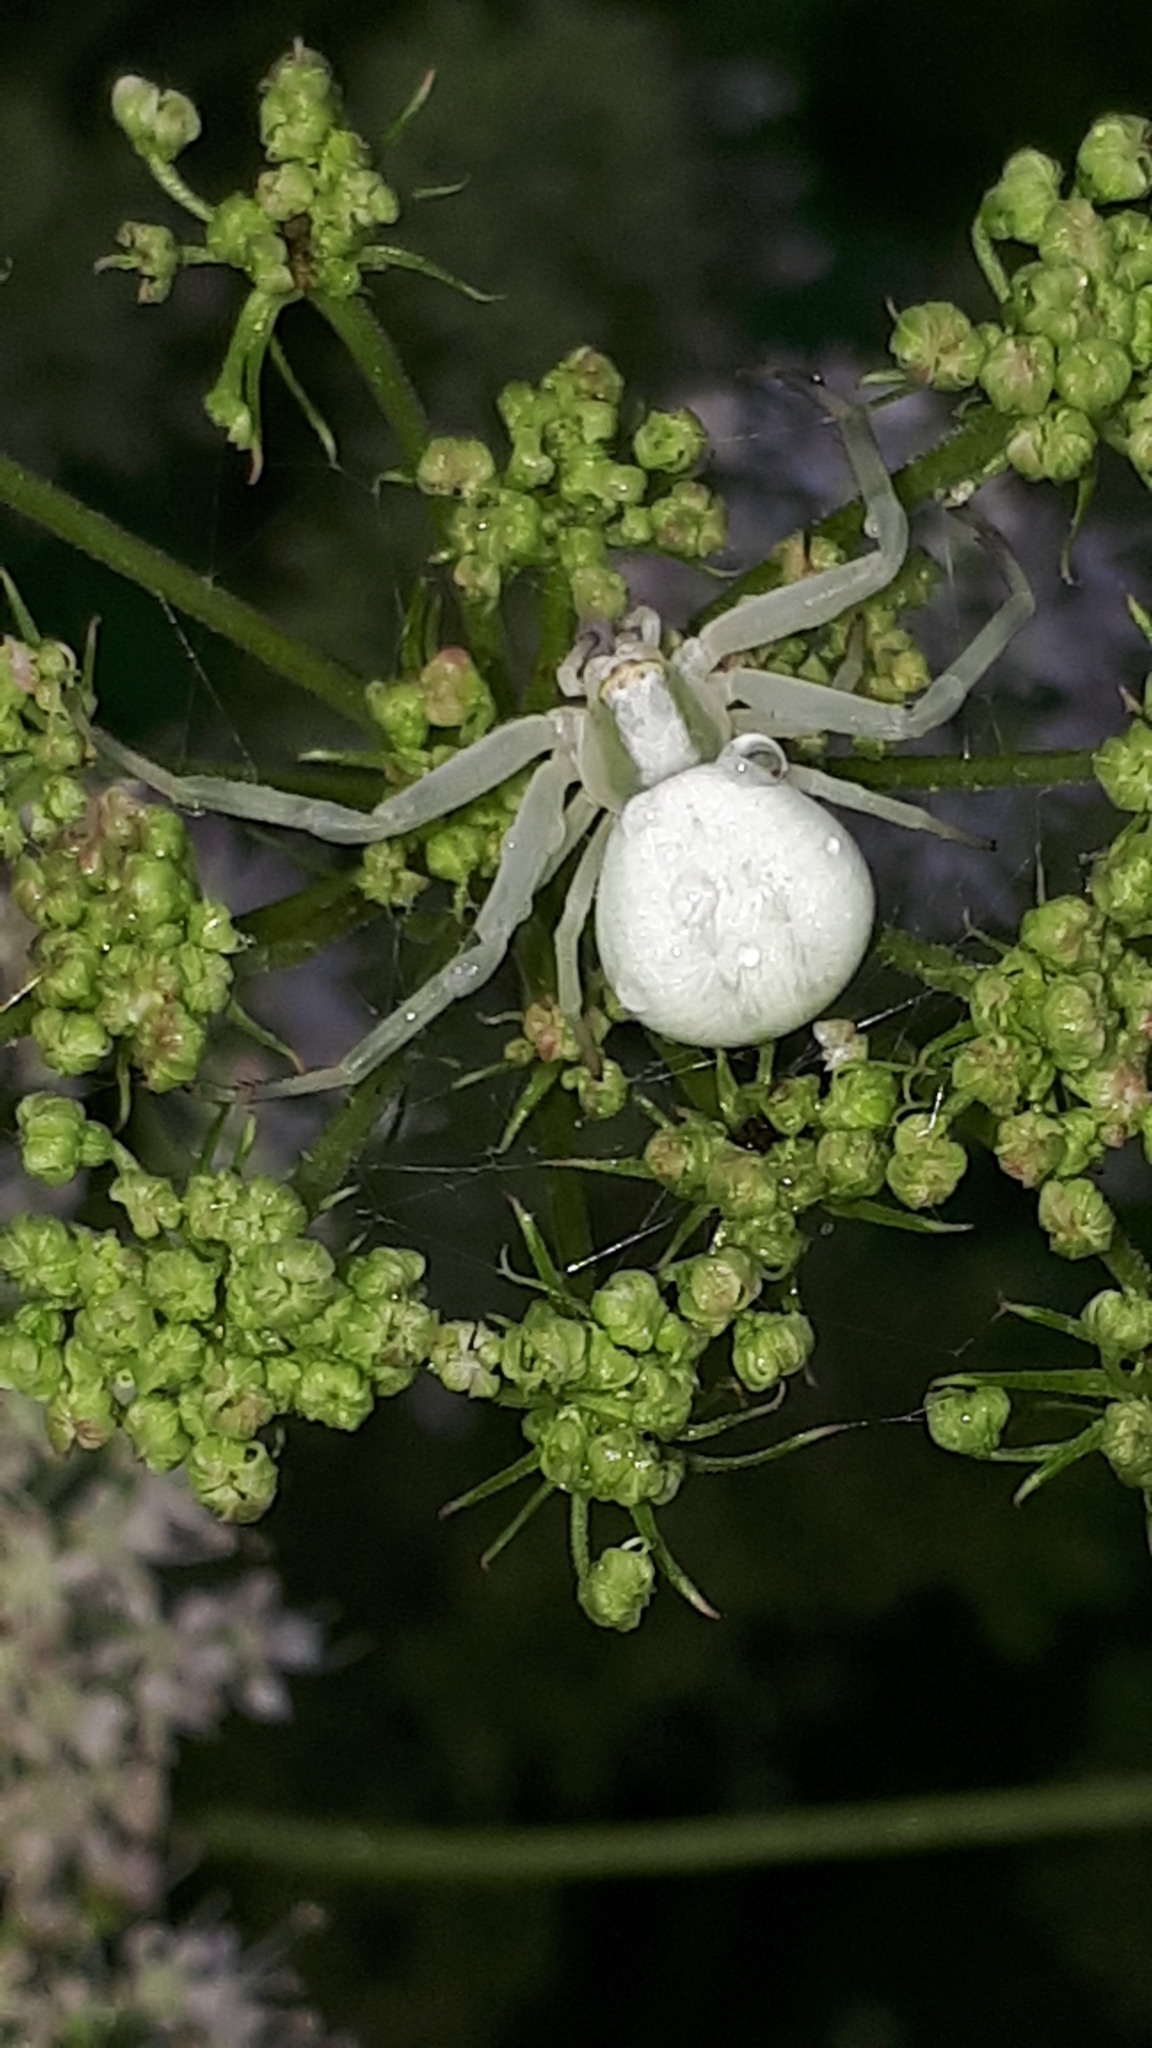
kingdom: Animalia
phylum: Arthropoda
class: Arachnida
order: Araneae
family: Thomisidae
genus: Misumena
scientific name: Misumena vatia
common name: Goldenrod crab spider
